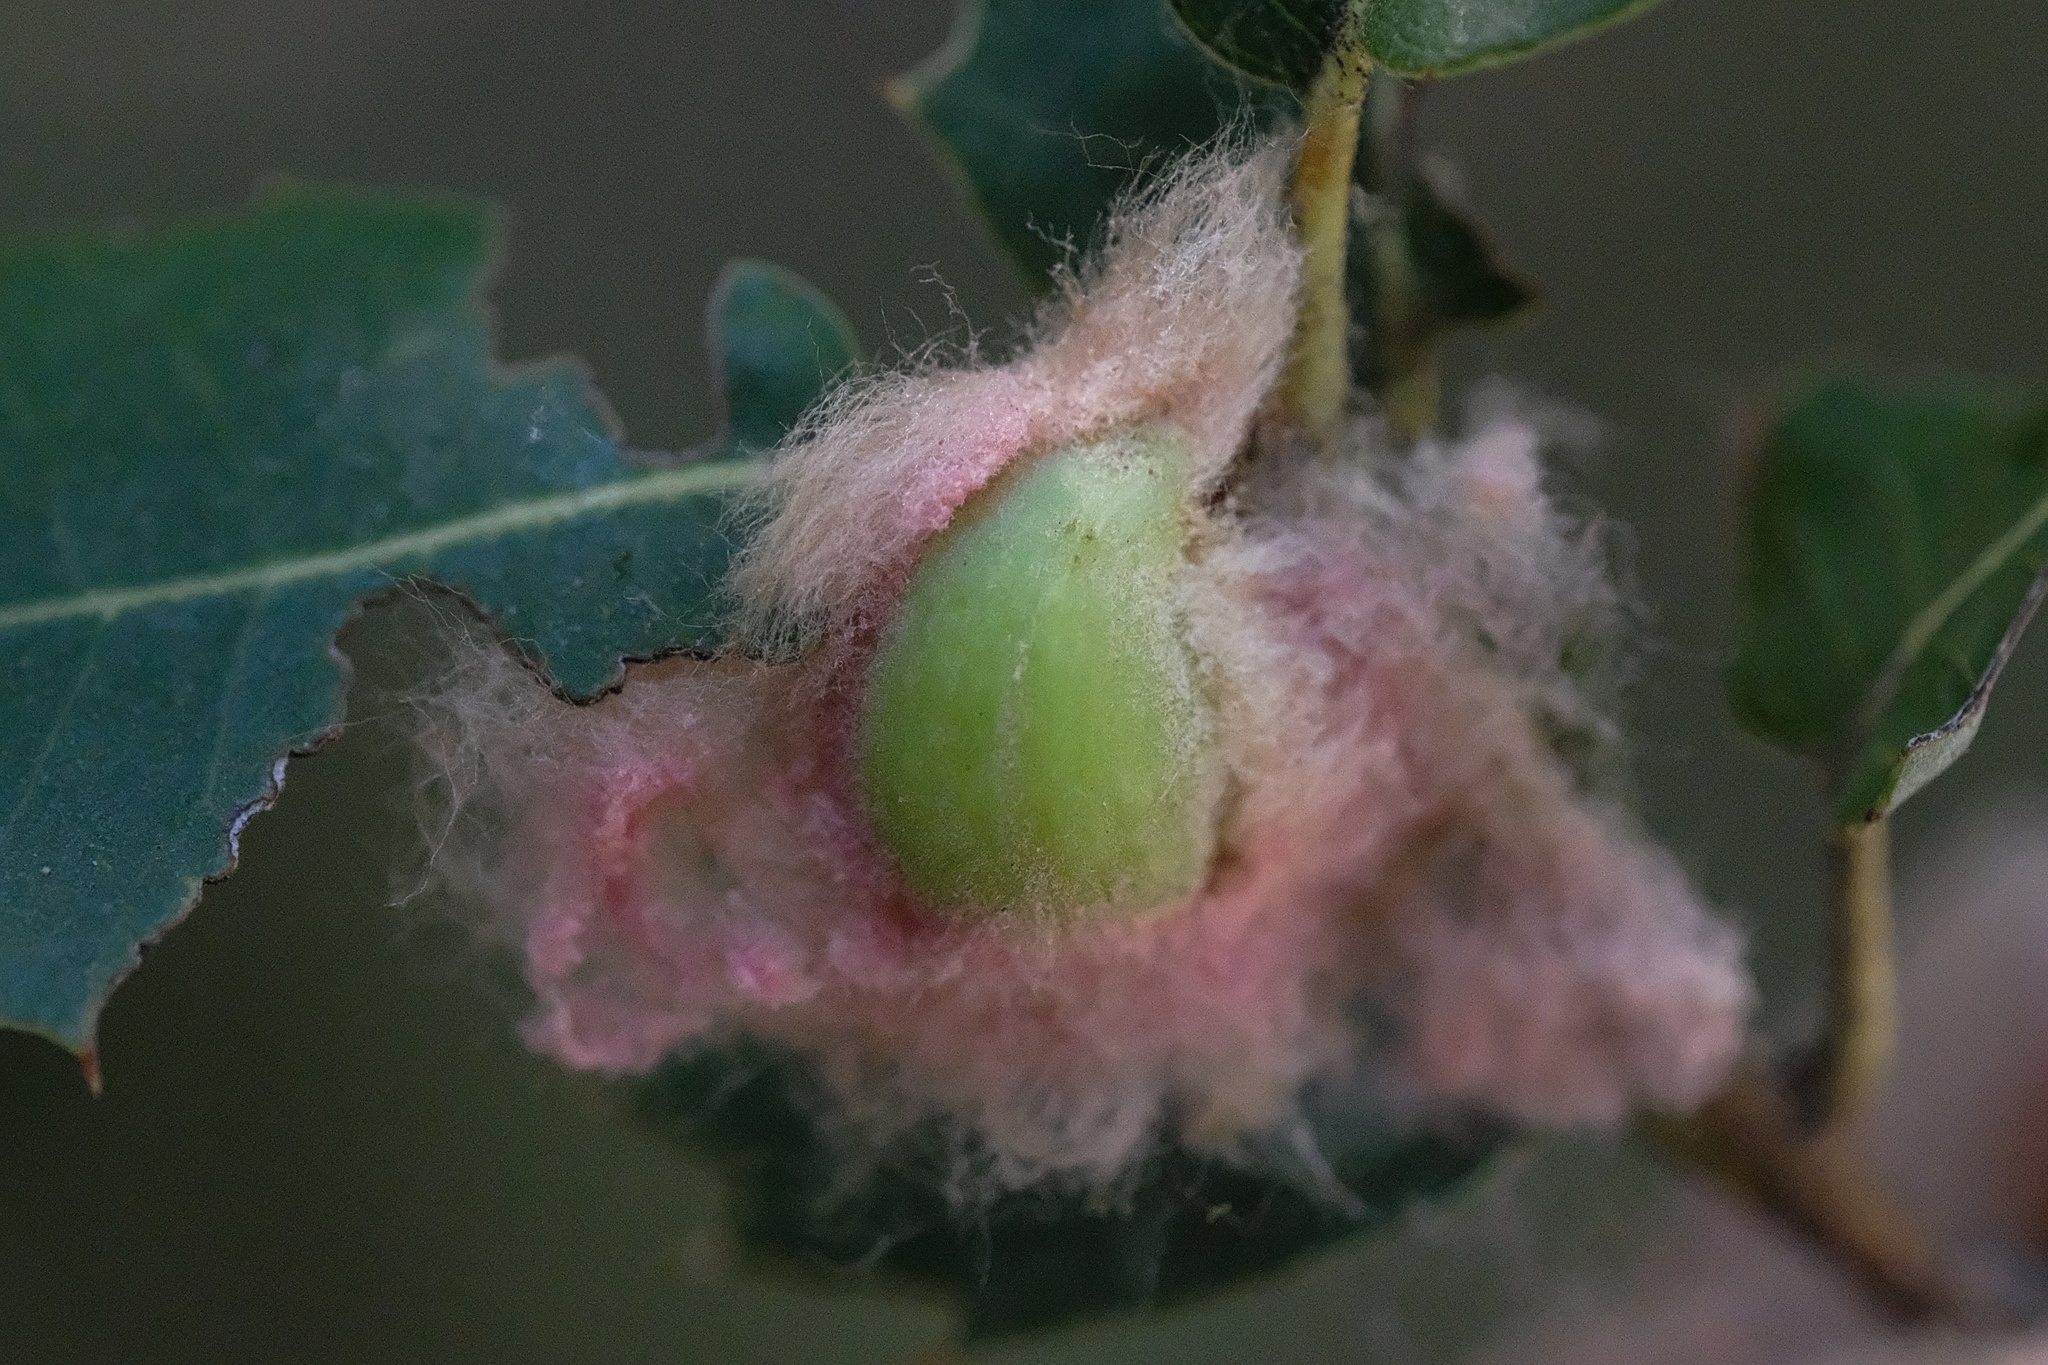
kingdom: Animalia
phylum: Arthropoda
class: Insecta
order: Hymenoptera
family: Cynipidae
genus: Heteroecus
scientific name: Heteroecus
